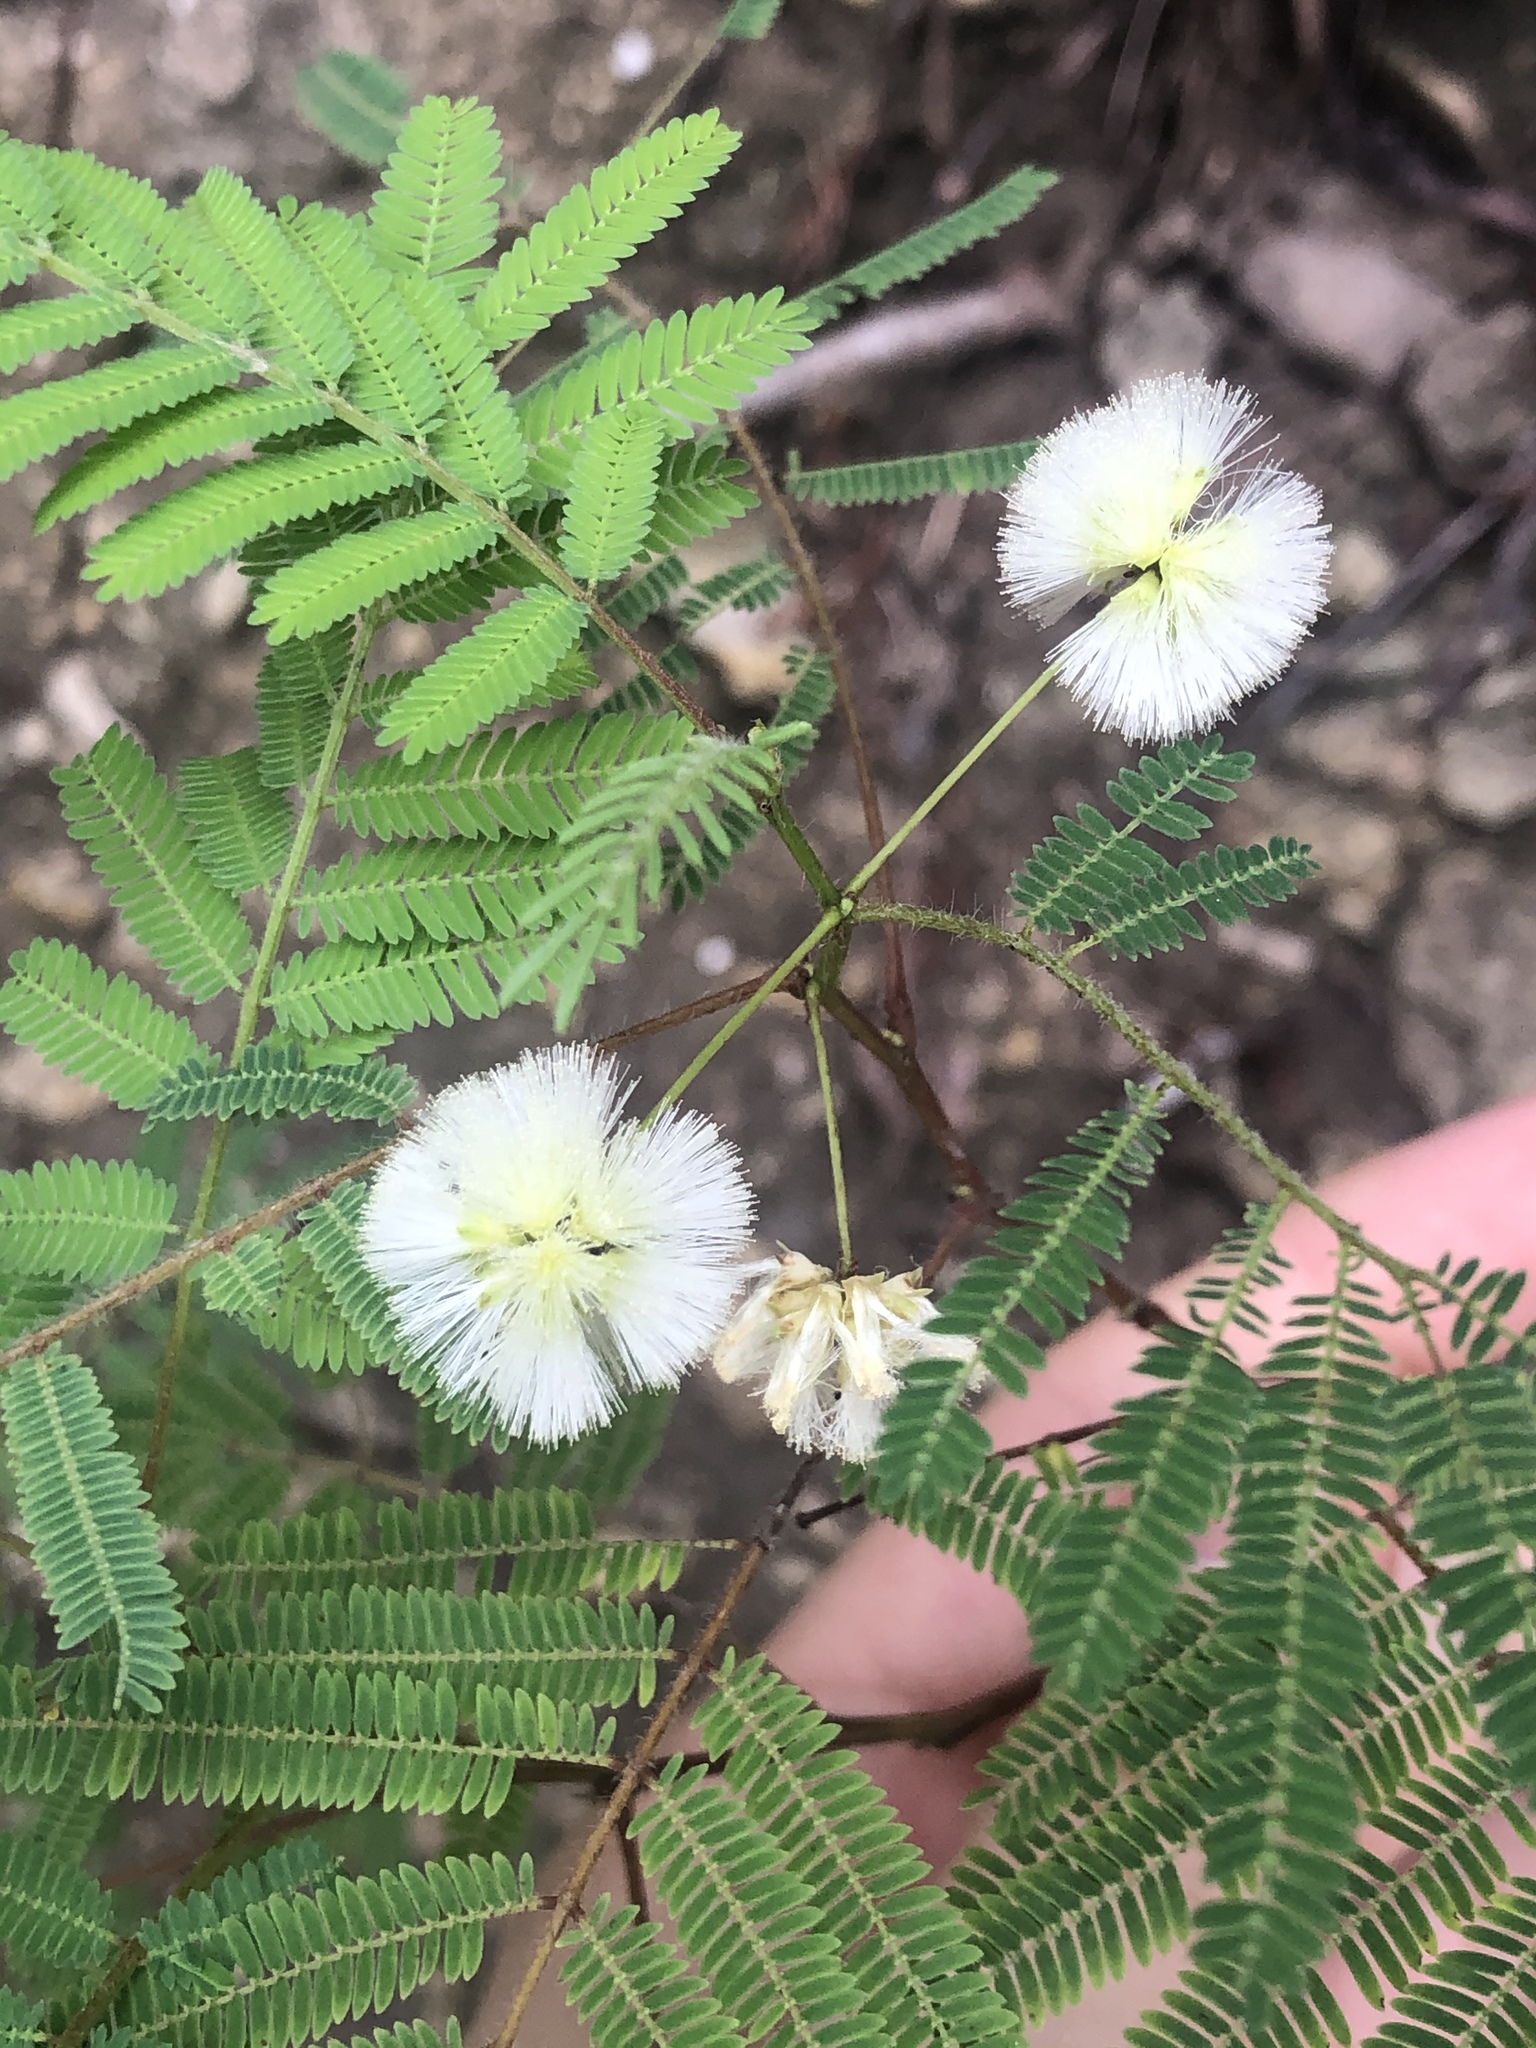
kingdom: Plantae
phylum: Tracheophyta
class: Magnoliopsida
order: Fabales
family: Fabaceae
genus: Acaciella
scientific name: Acaciella angustissima
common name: Prairie acacia
